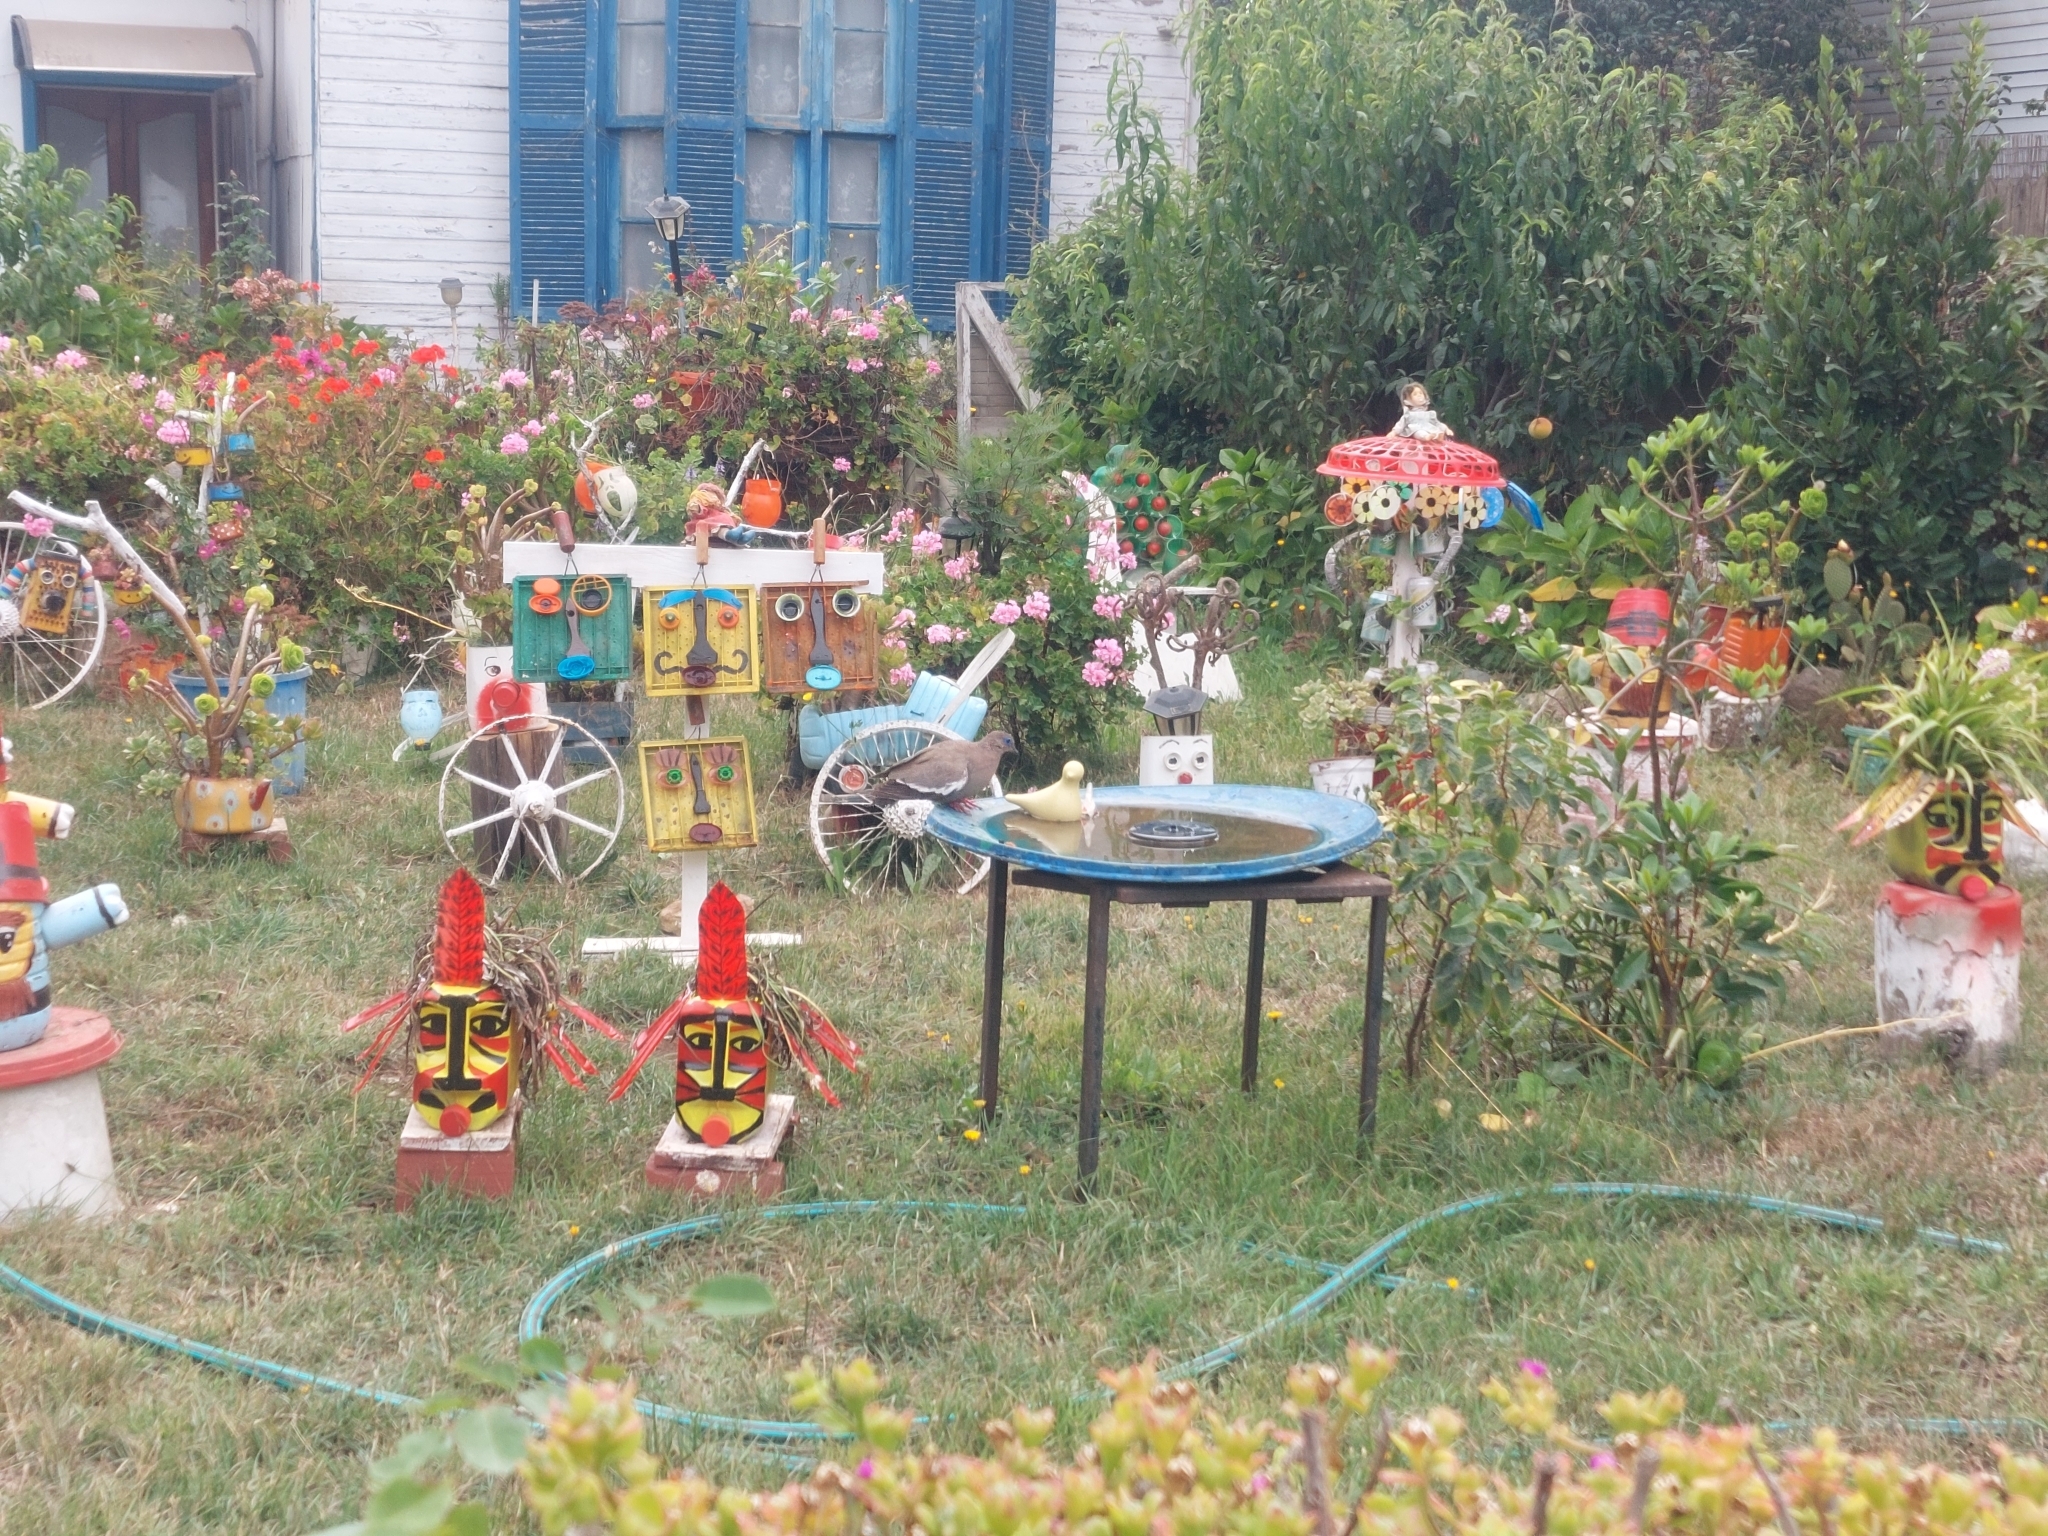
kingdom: Animalia
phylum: Chordata
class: Aves
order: Columbiformes
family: Columbidae
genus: Zenaida
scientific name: Zenaida meloda
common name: West peruvian dove
